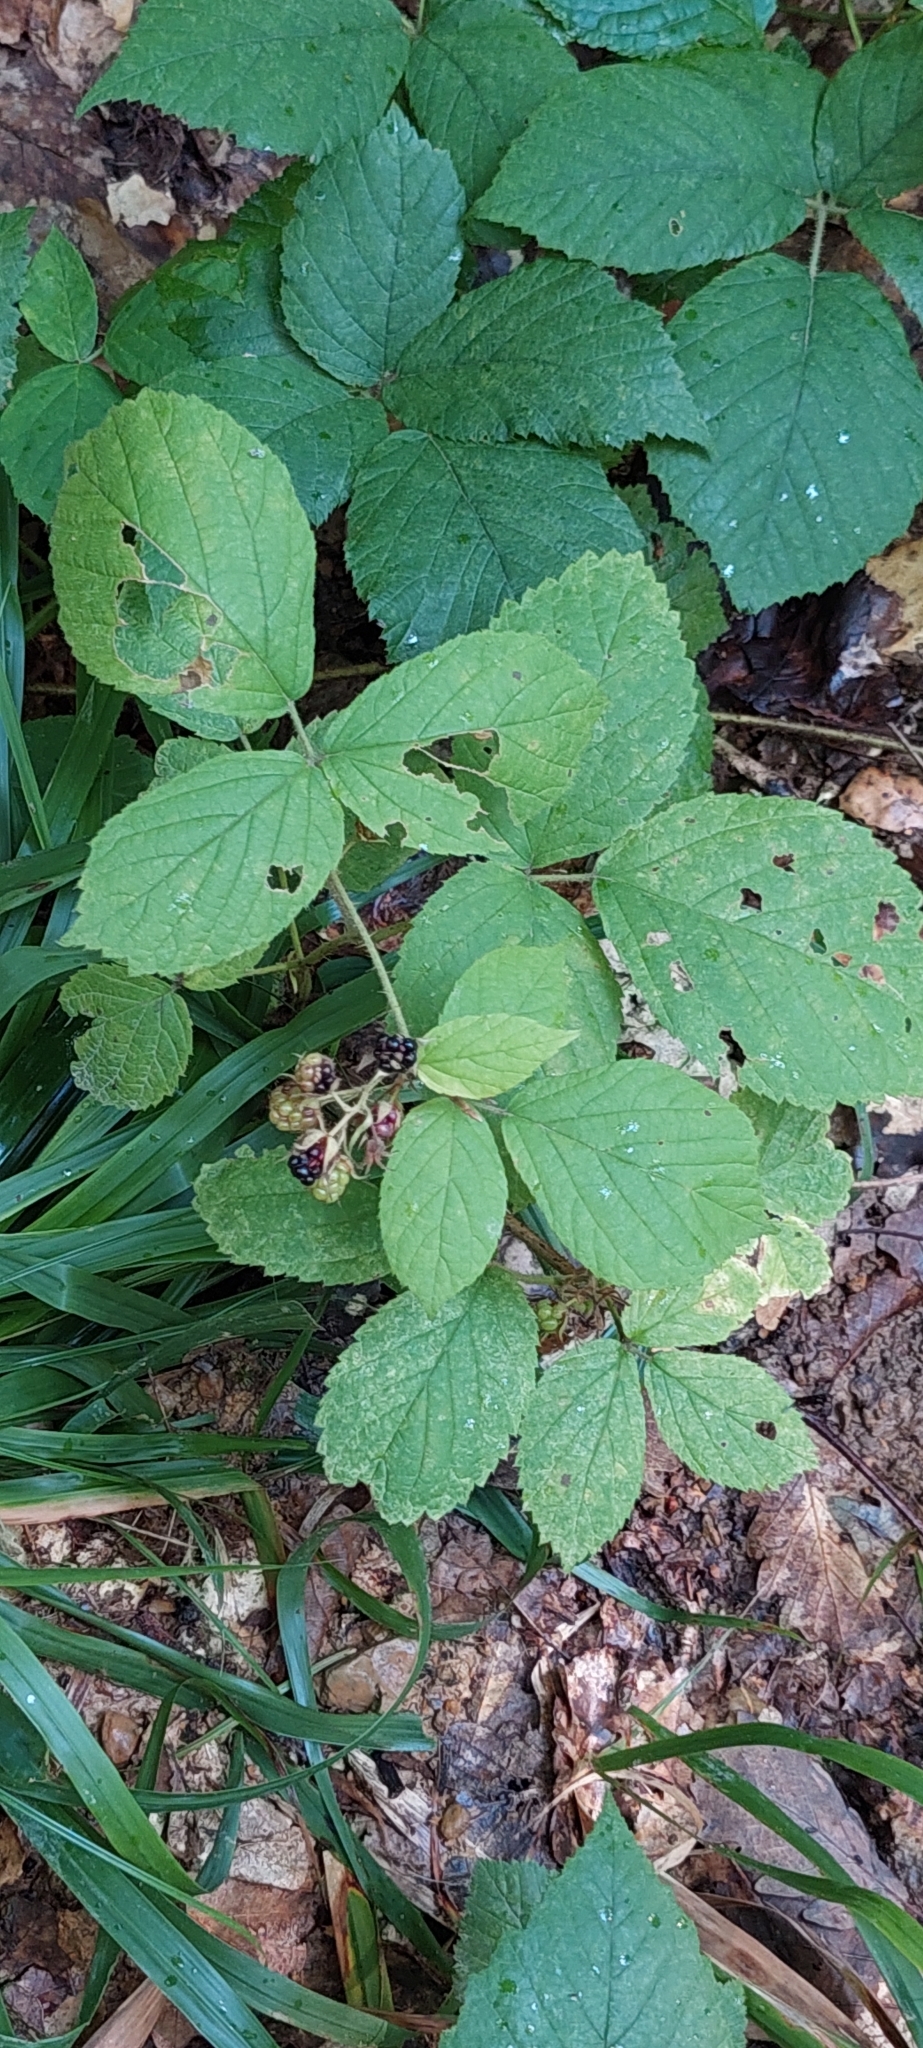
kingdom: Plantae
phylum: Tracheophyta
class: Magnoliopsida
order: Rosales
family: Rosaceae
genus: Rubus
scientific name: Rubus hirtus
